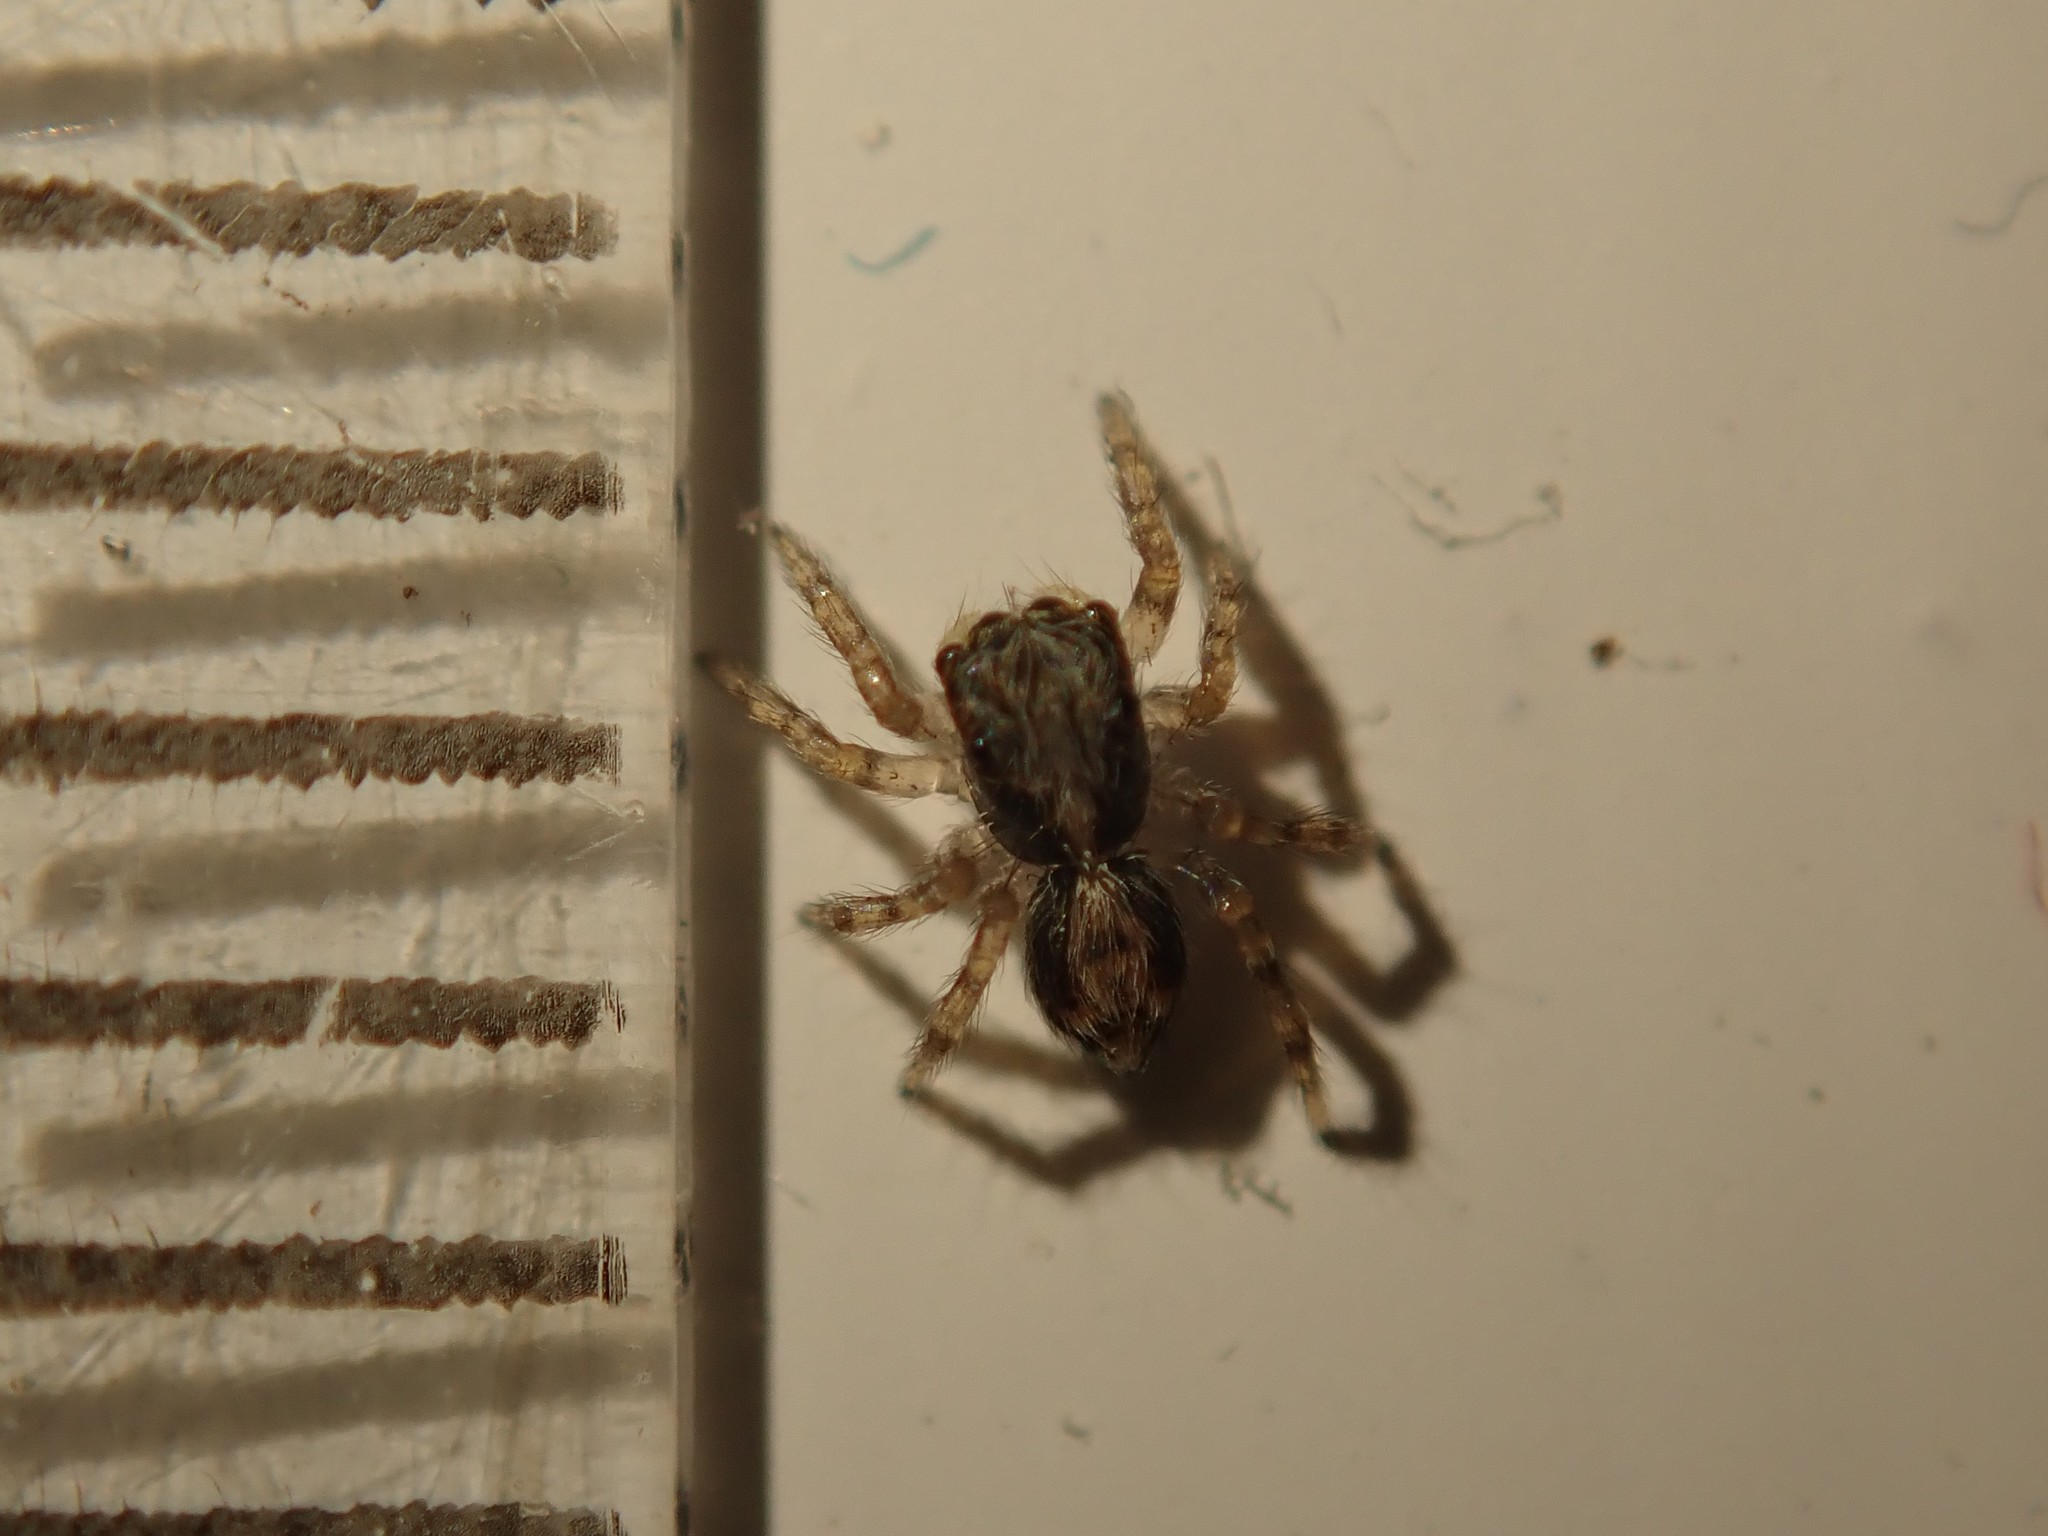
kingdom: Animalia
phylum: Arthropoda
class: Arachnida
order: Araneae
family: Salticidae
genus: Pseudeuophrys
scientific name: Pseudeuophrys lanigera
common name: Jumping spider
